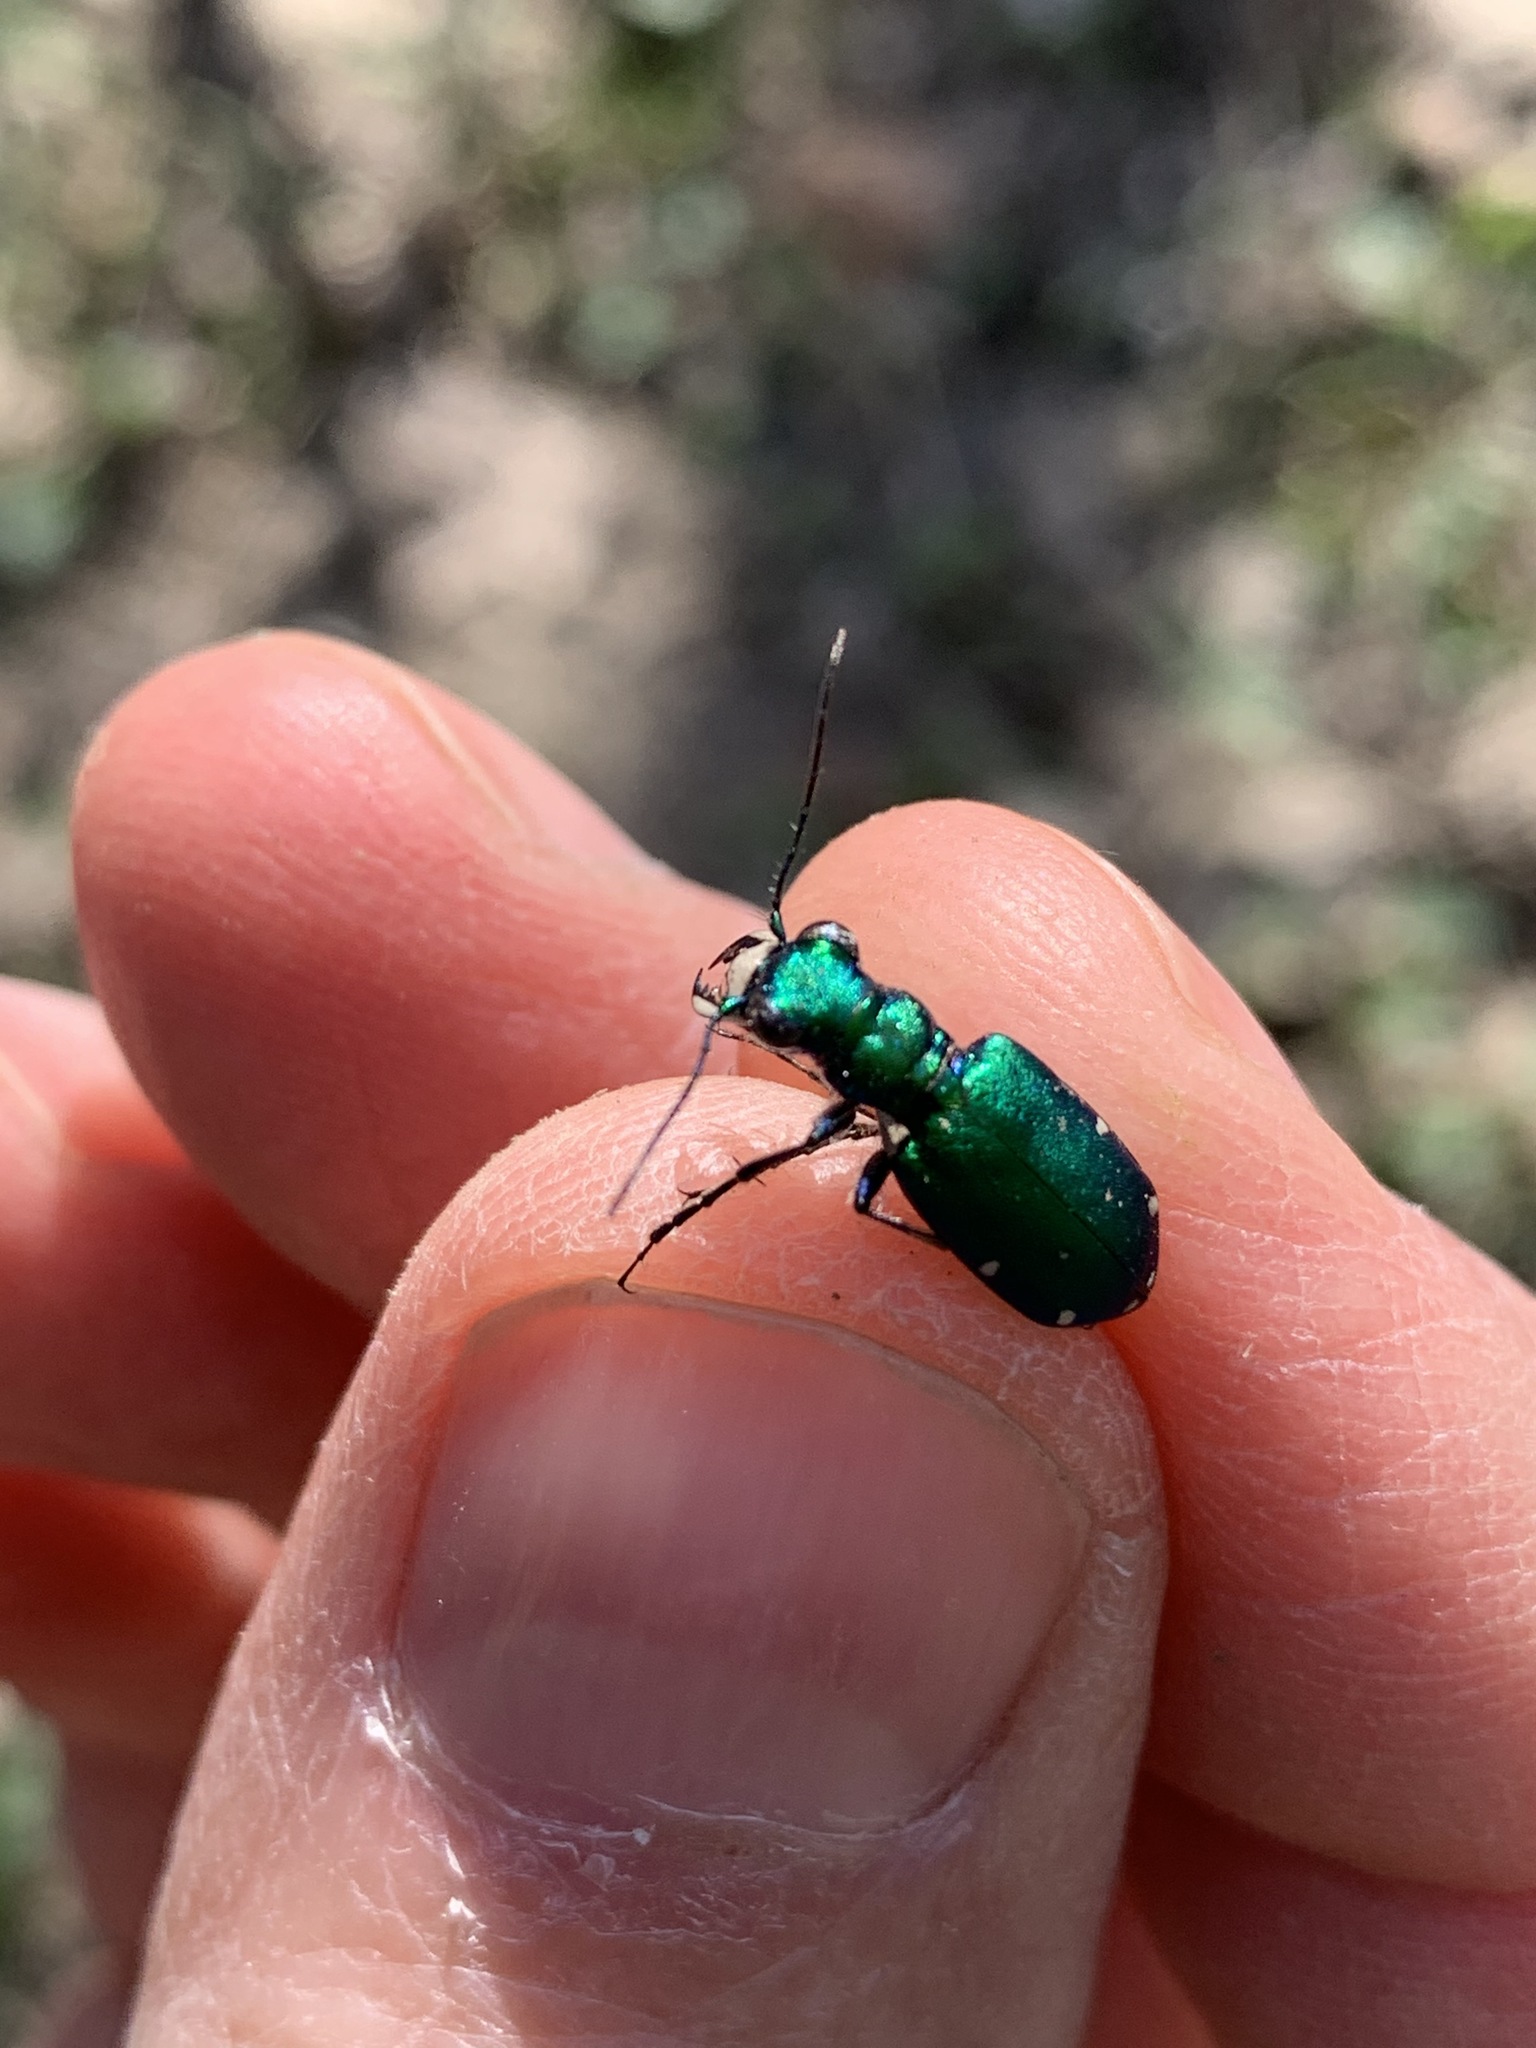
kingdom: Animalia
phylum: Arthropoda
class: Insecta
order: Coleoptera
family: Carabidae
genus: Cicindela
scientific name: Cicindela sexguttata
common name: Six-spotted tiger beetle
